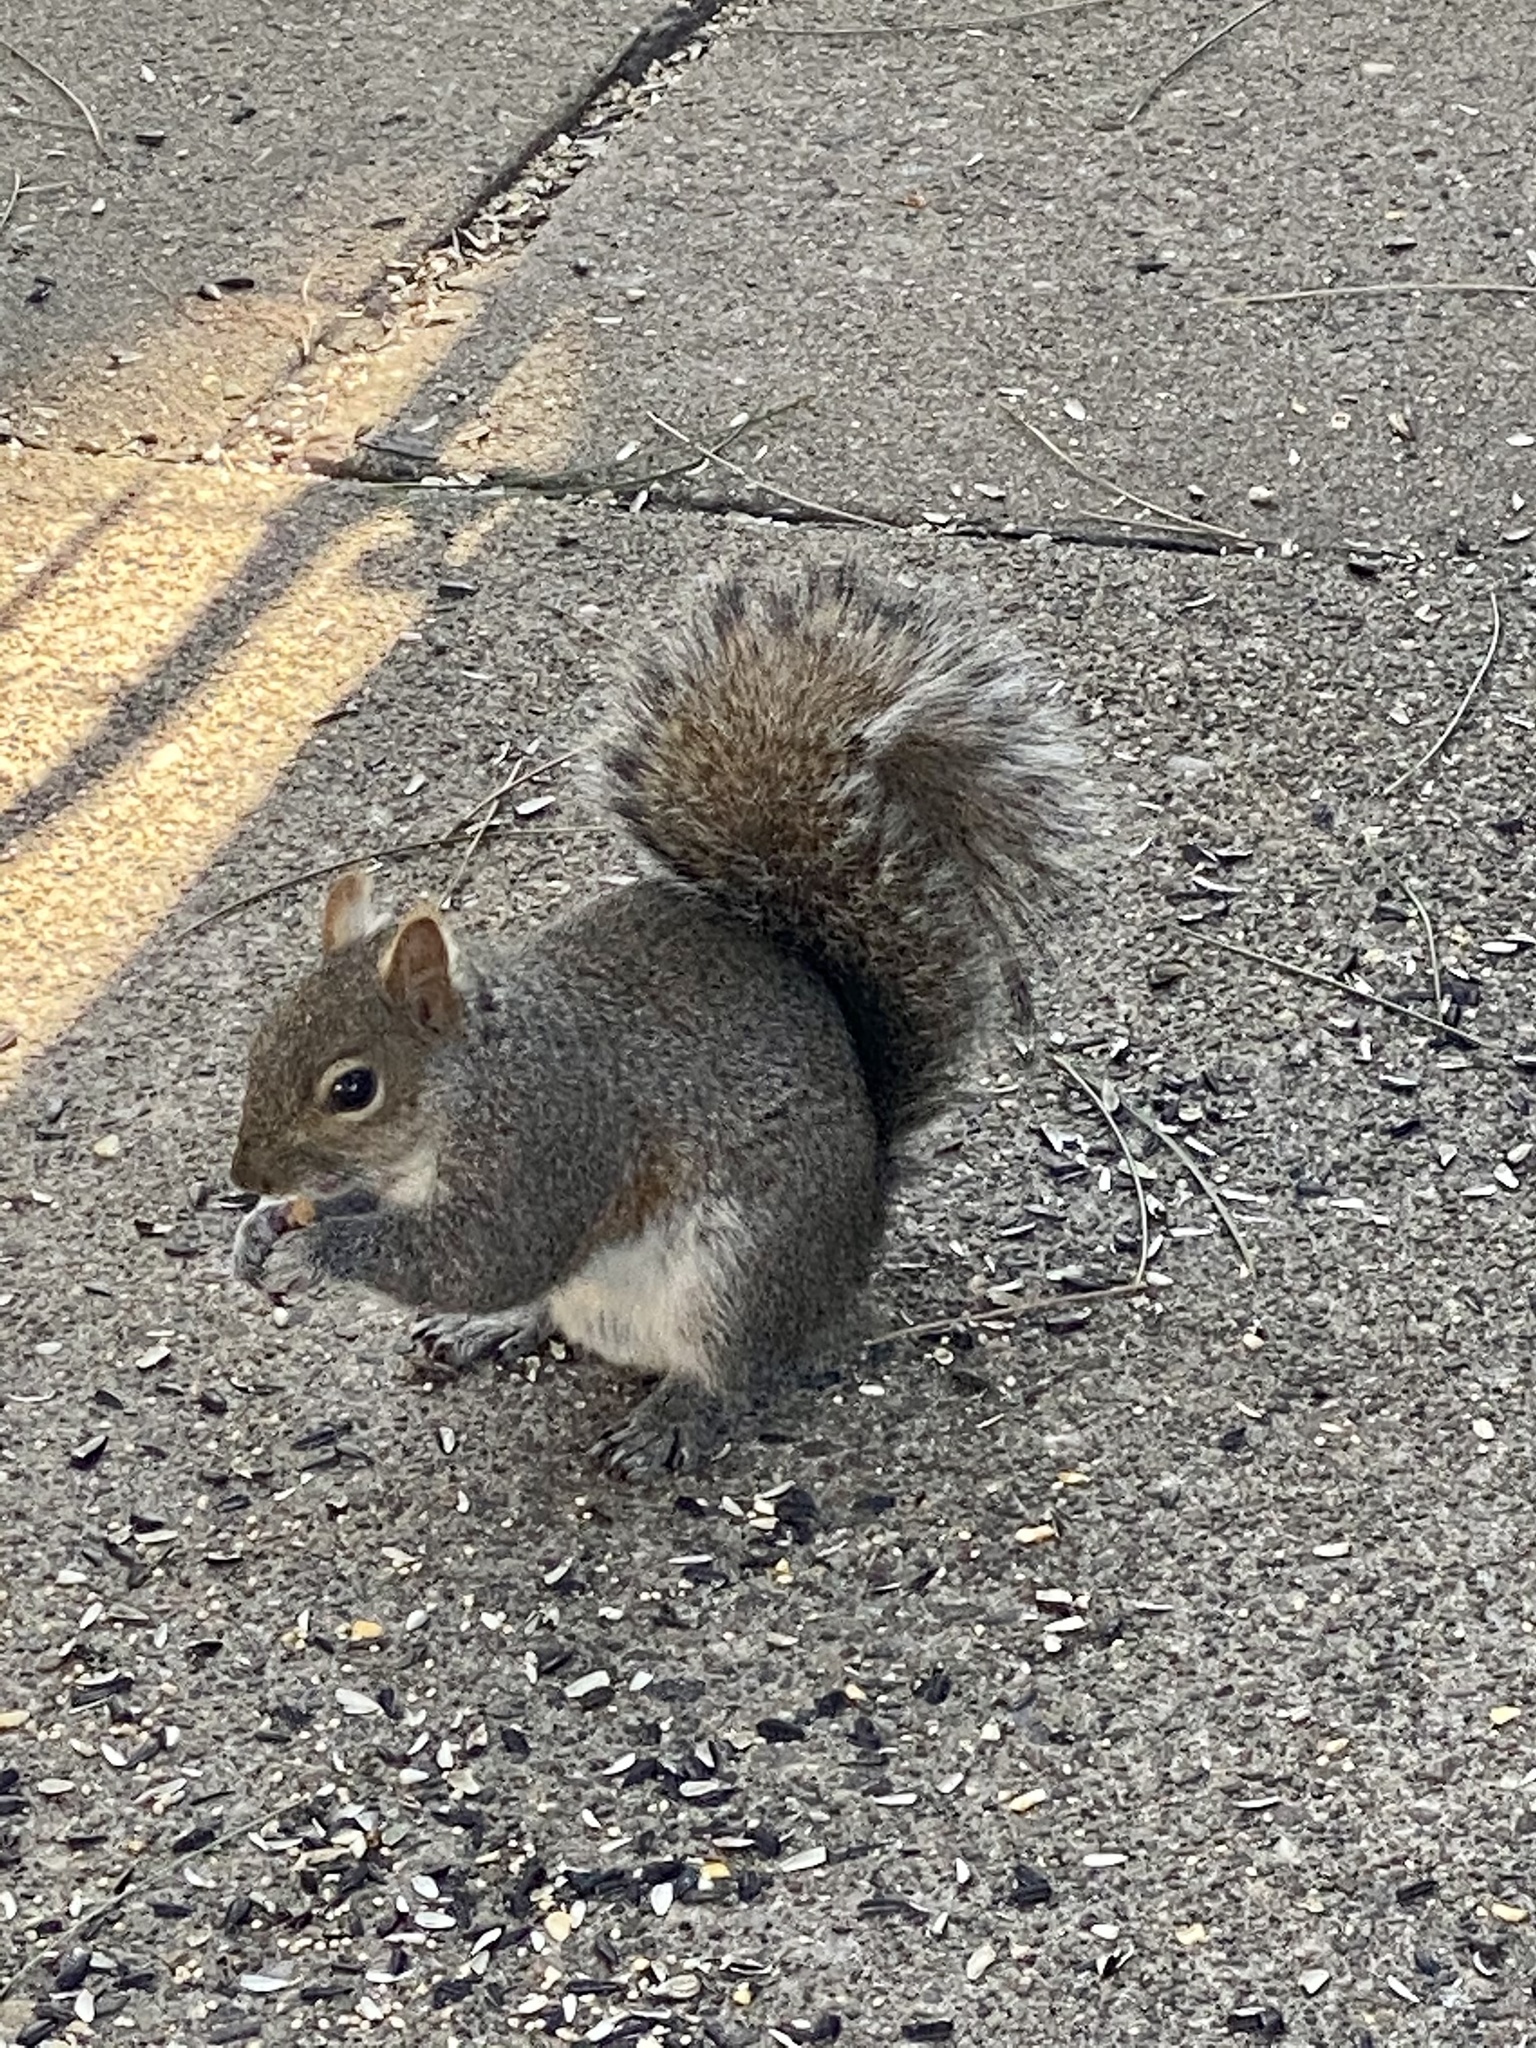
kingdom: Animalia
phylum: Chordata
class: Mammalia
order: Rodentia
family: Sciuridae
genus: Sciurus
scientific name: Sciurus carolinensis
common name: Eastern gray squirrel
